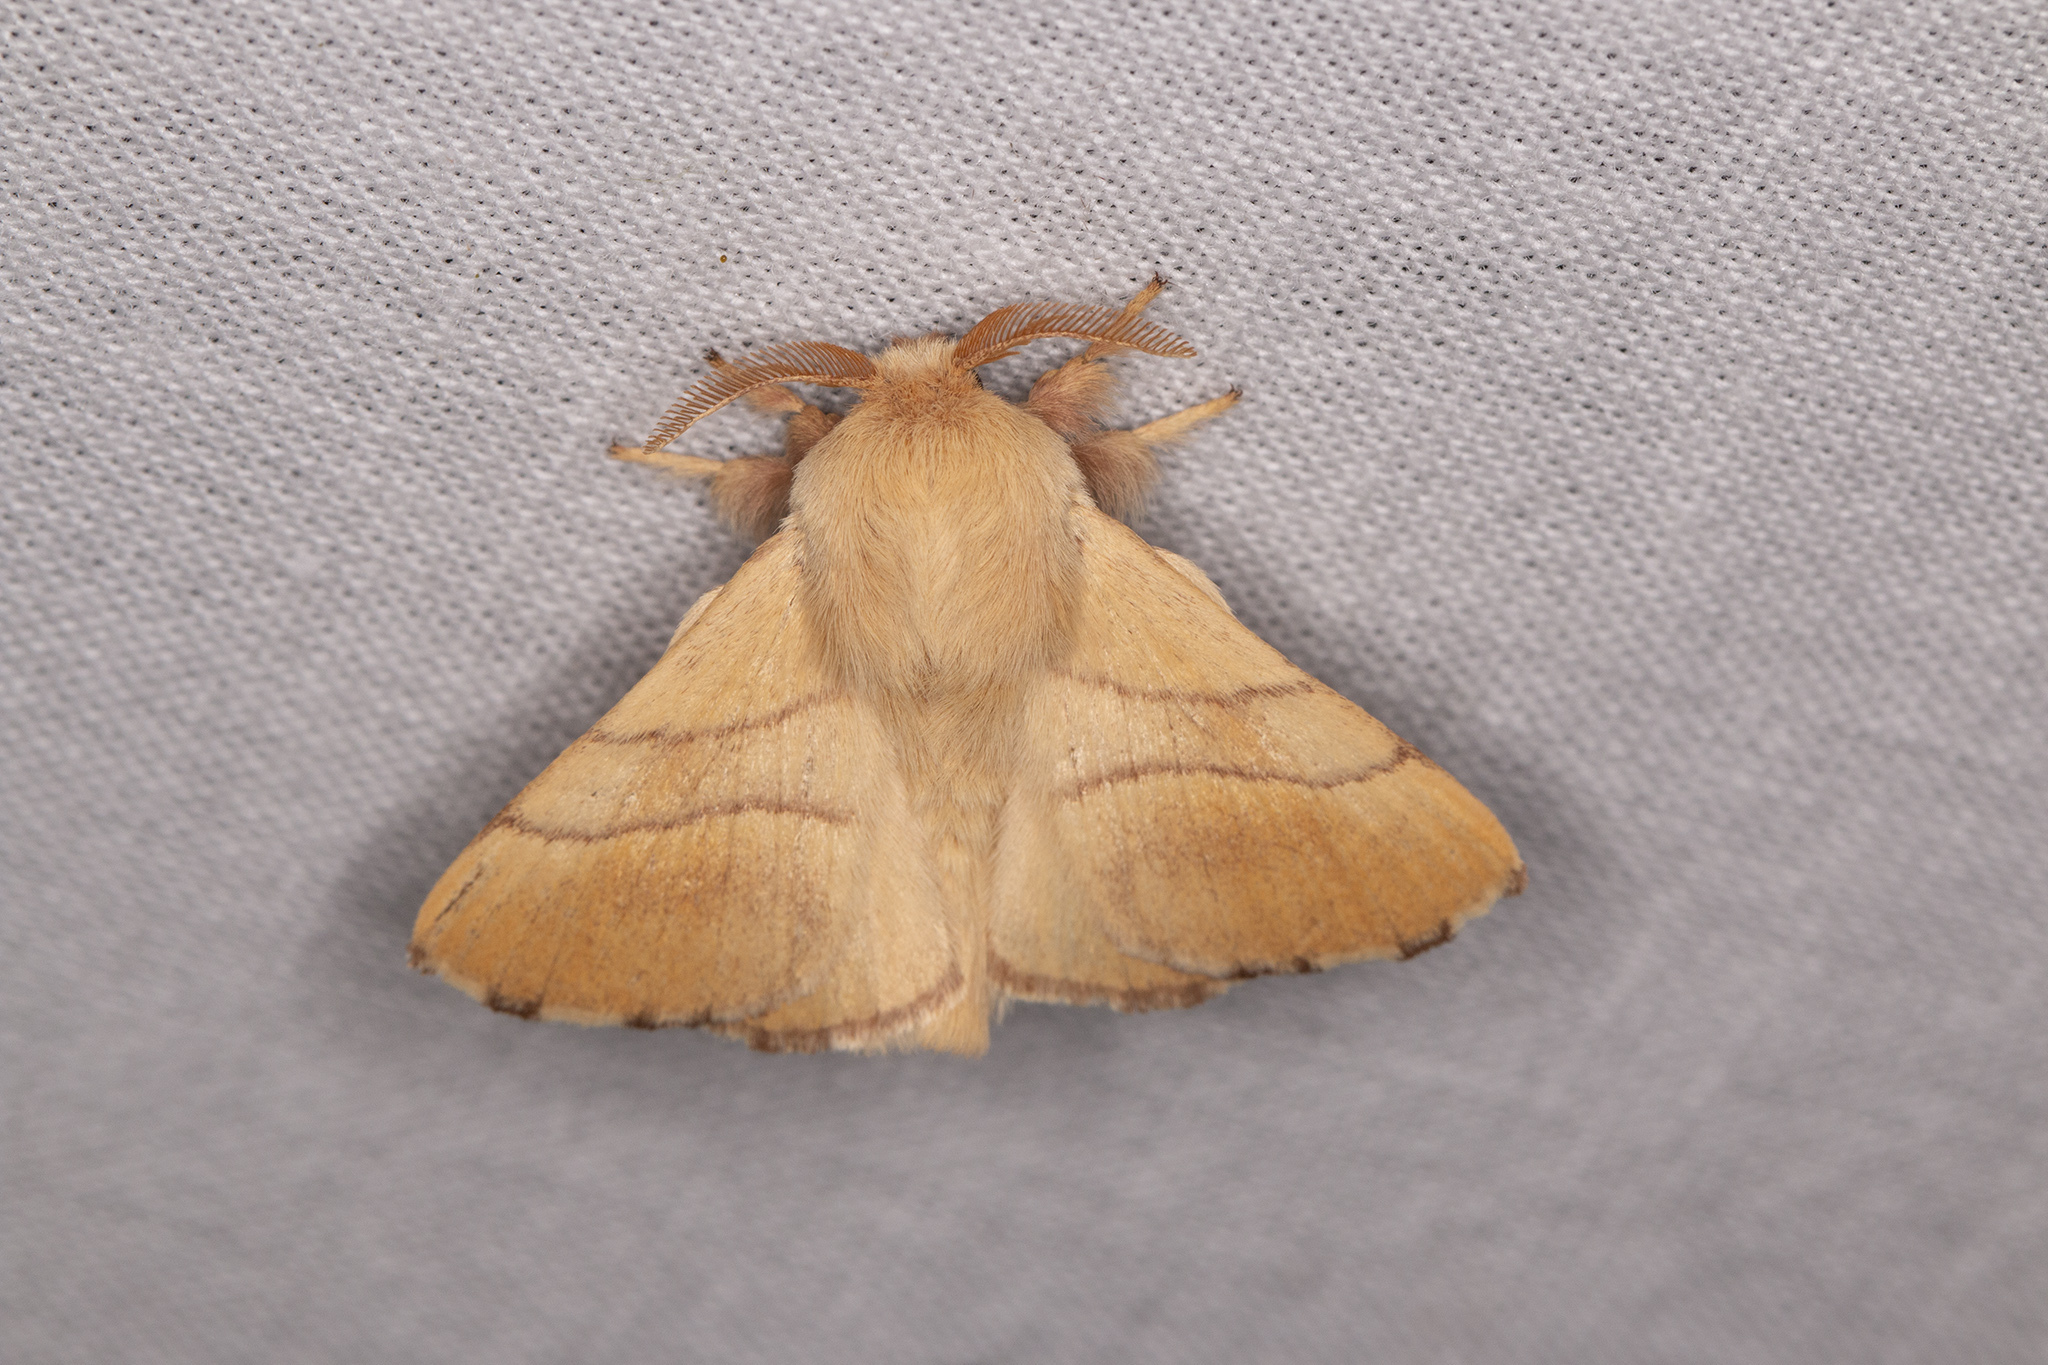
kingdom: Animalia
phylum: Arthropoda
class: Insecta
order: Lepidoptera
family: Lasiocampidae
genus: Malacosoma
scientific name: Malacosoma neustria
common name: The lackey
